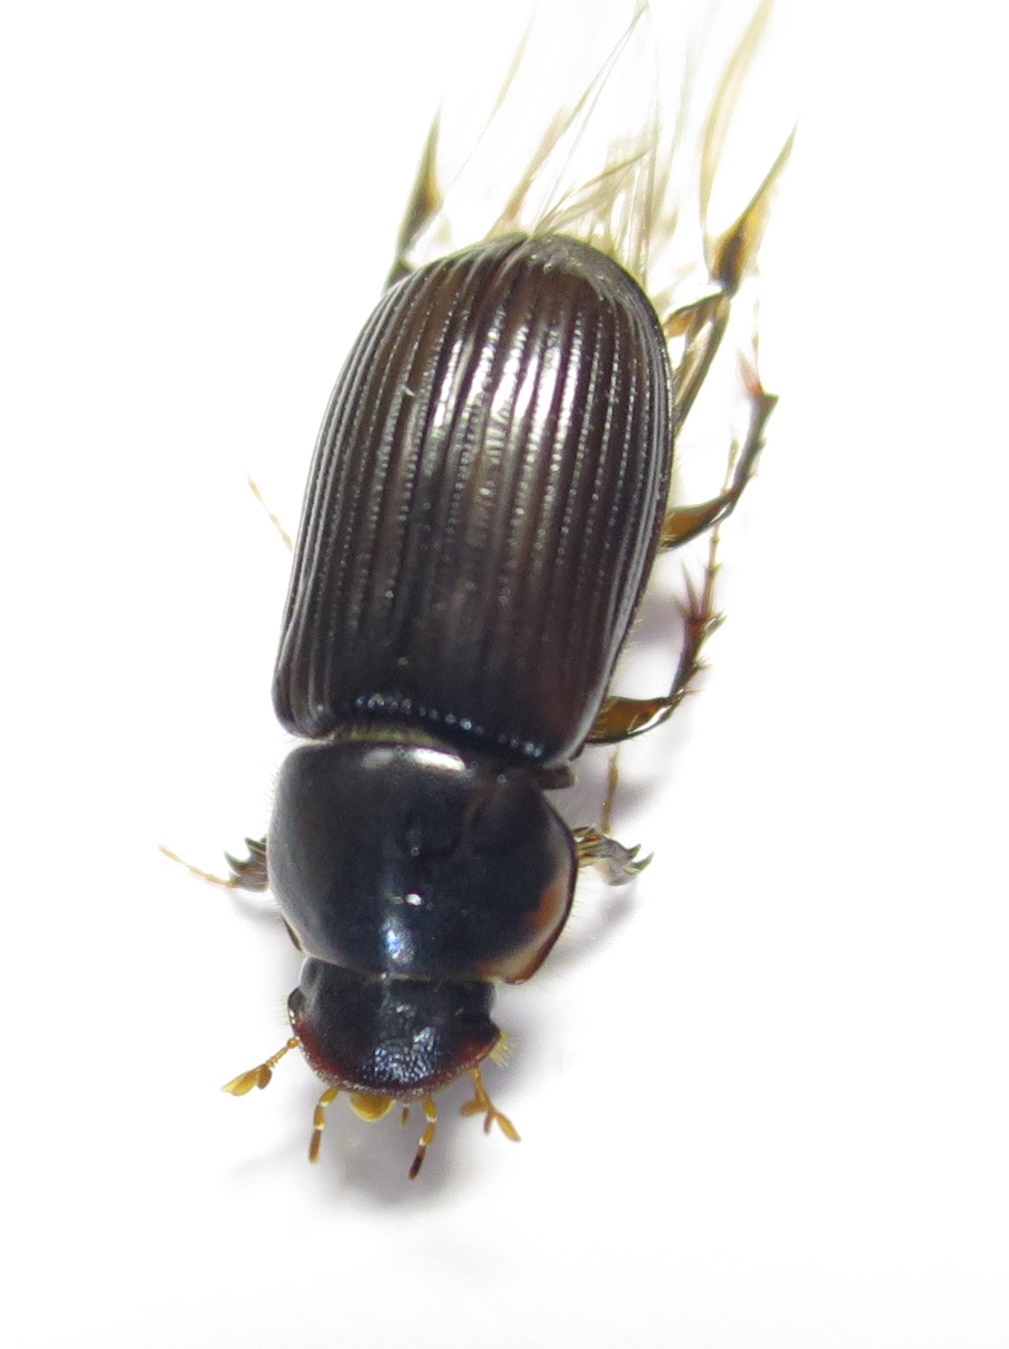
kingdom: Animalia
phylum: Arthropoda
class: Insecta
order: Coleoptera
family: Scarabaeidae
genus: Acrossidius
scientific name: Acrossidius tasmaniae
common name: Black-headed pasture cockchafer
